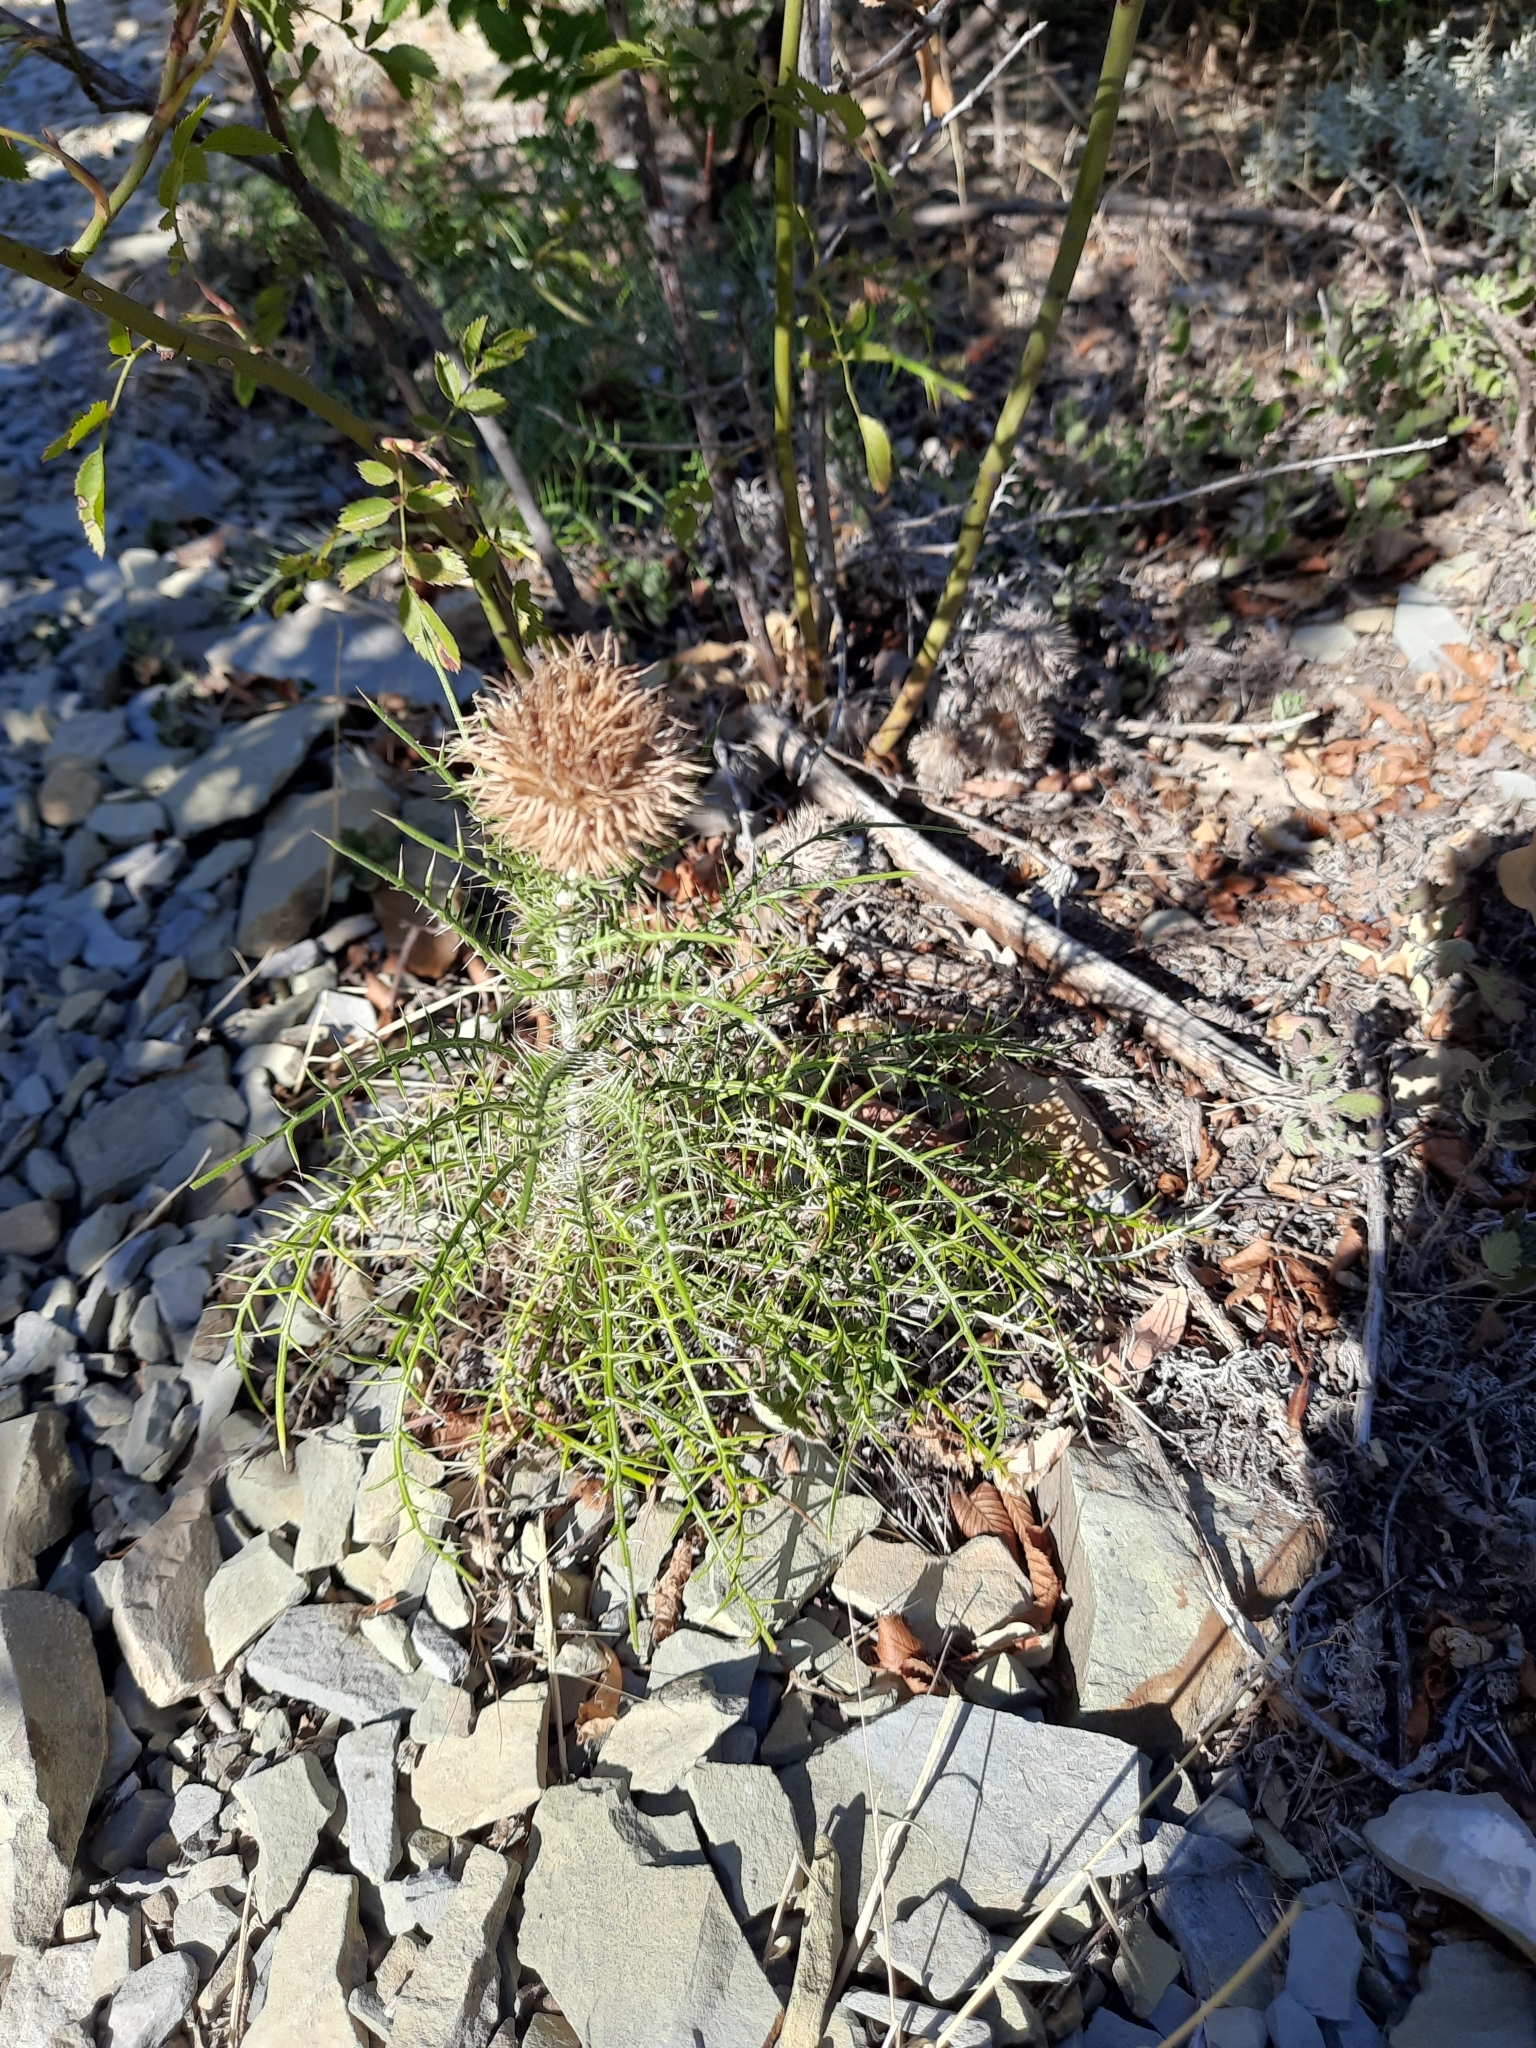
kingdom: Plantae
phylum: Tracheophyta
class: Magnoliopsida
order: Asterales
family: Asteraceae
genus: Ptilostemon
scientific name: Ptilostemon echinocephalus
